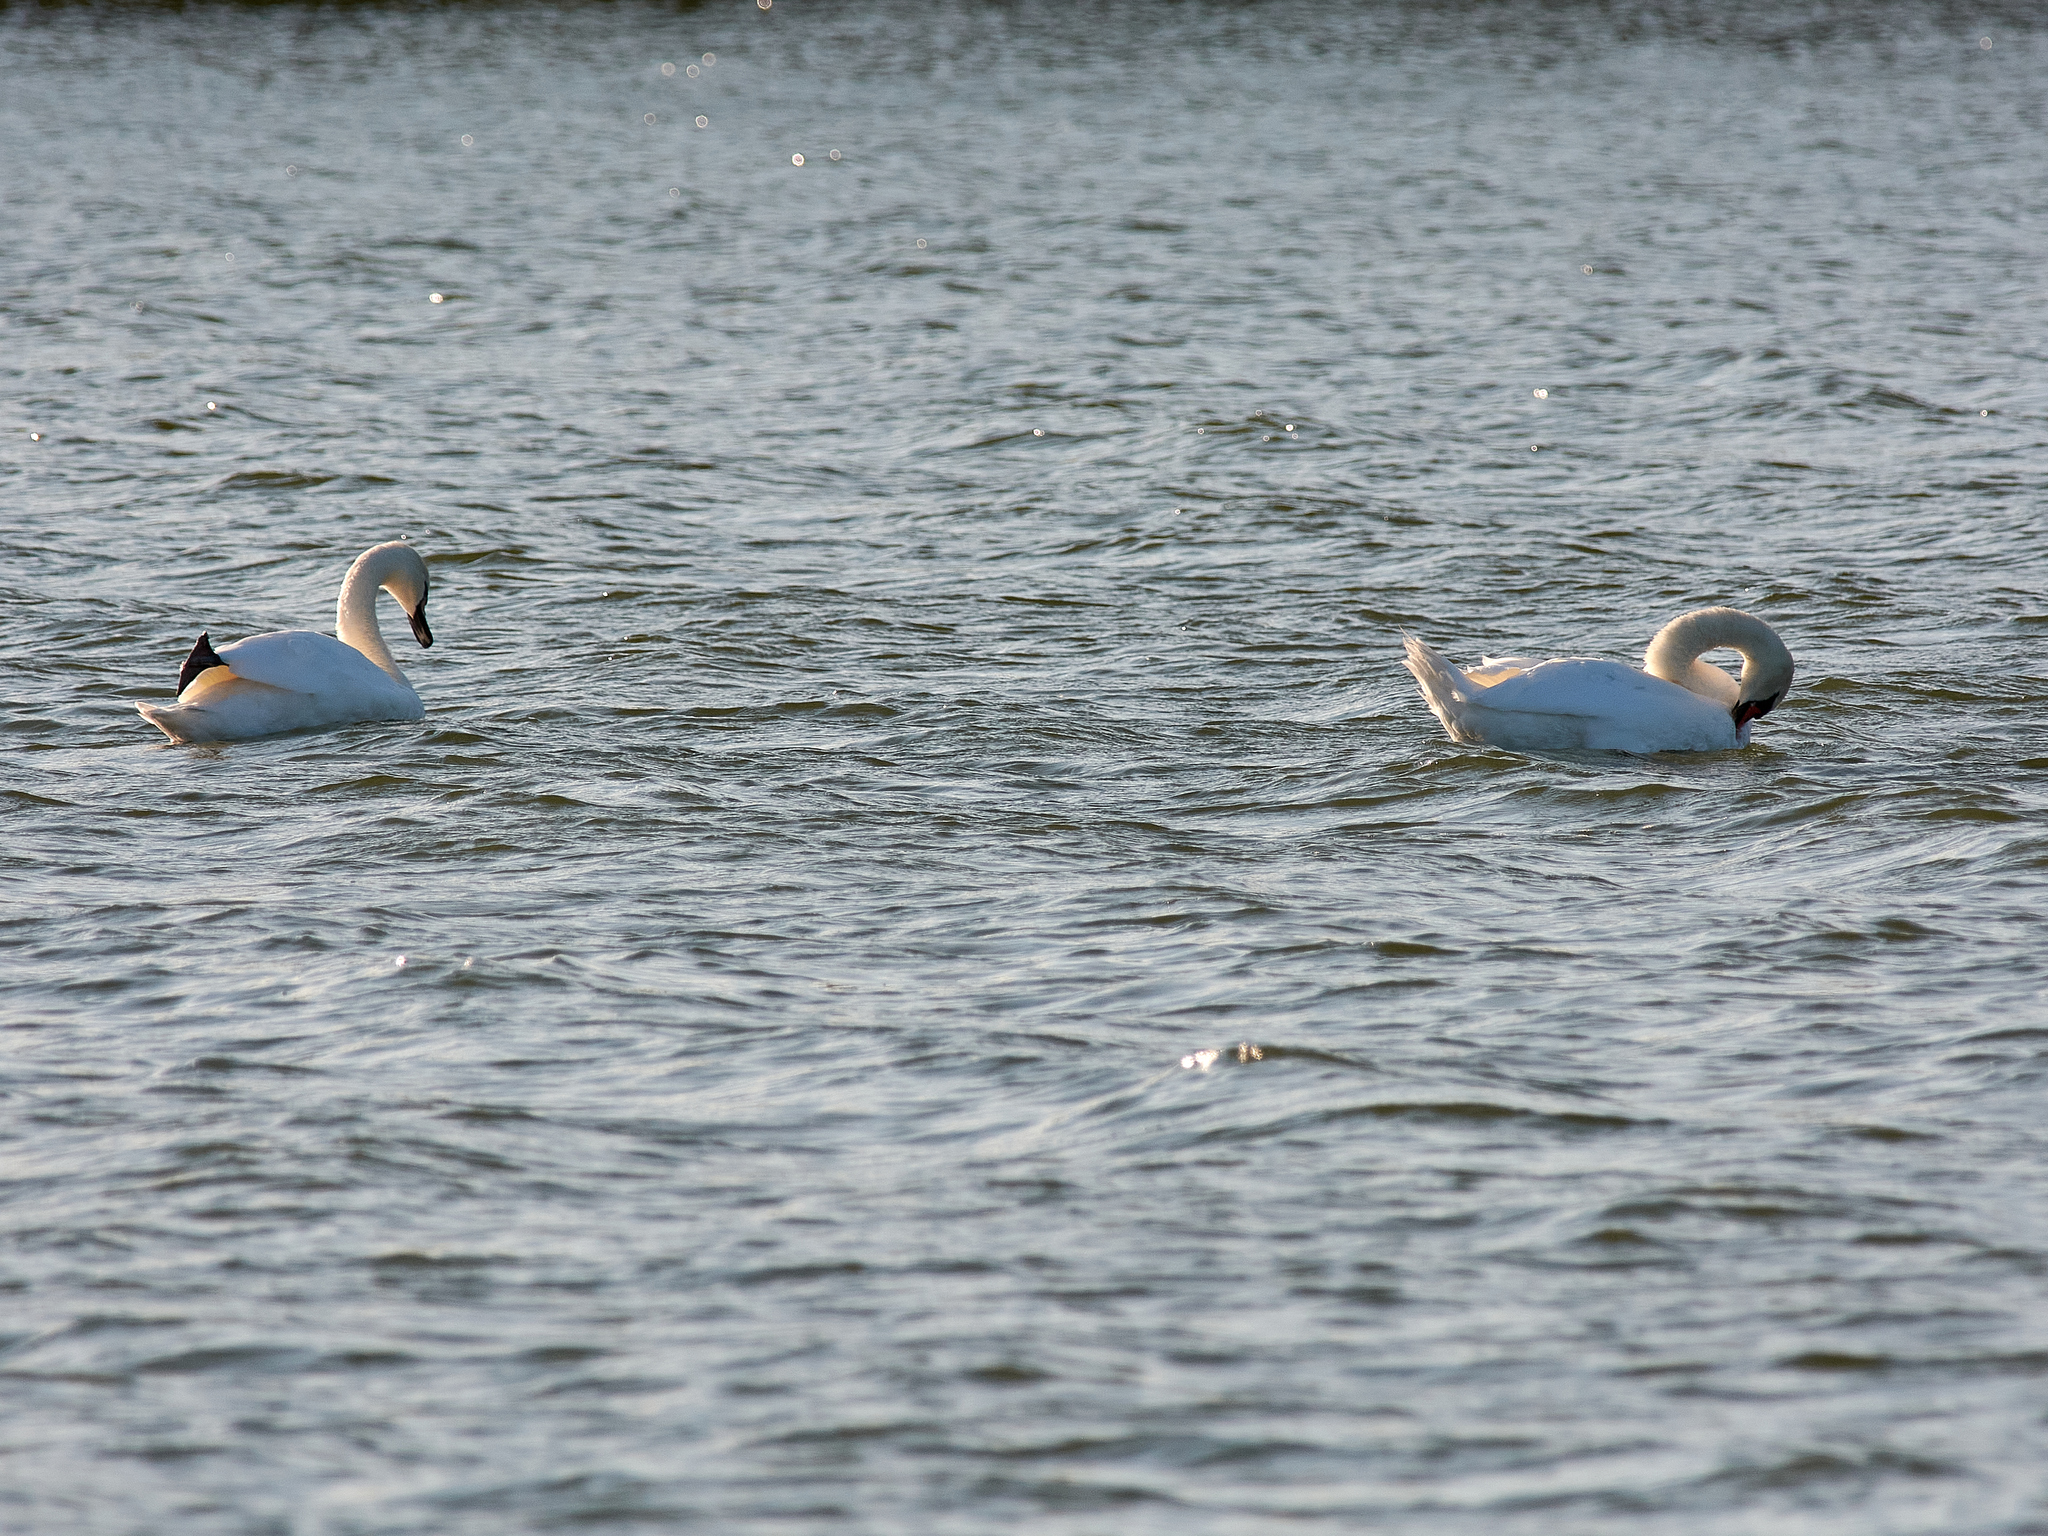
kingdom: Animalia
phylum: Chordata
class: Aves
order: Anseriformes
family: Anatidae
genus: Cygnus
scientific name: Cygnus olor
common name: Mute swan
